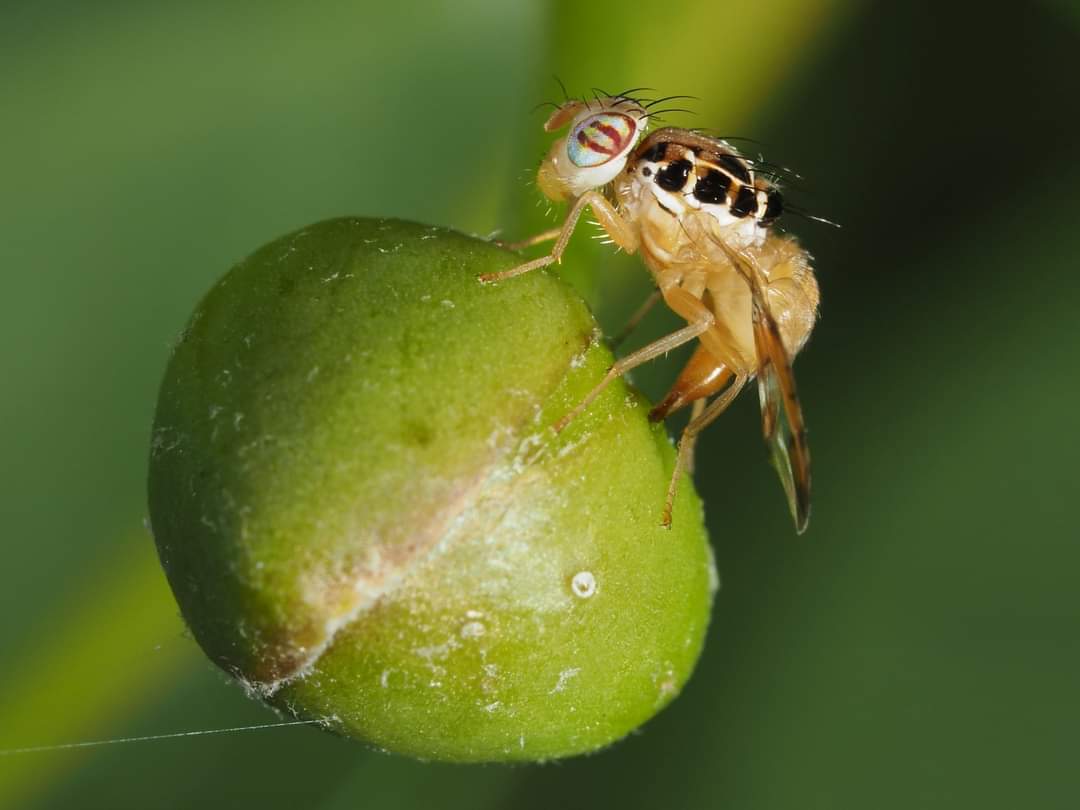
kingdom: Animalia
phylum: Arthropoda
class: Insecta
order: Diptera
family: Tephritidae
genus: Capparimyia
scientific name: Capparimyia savastani
